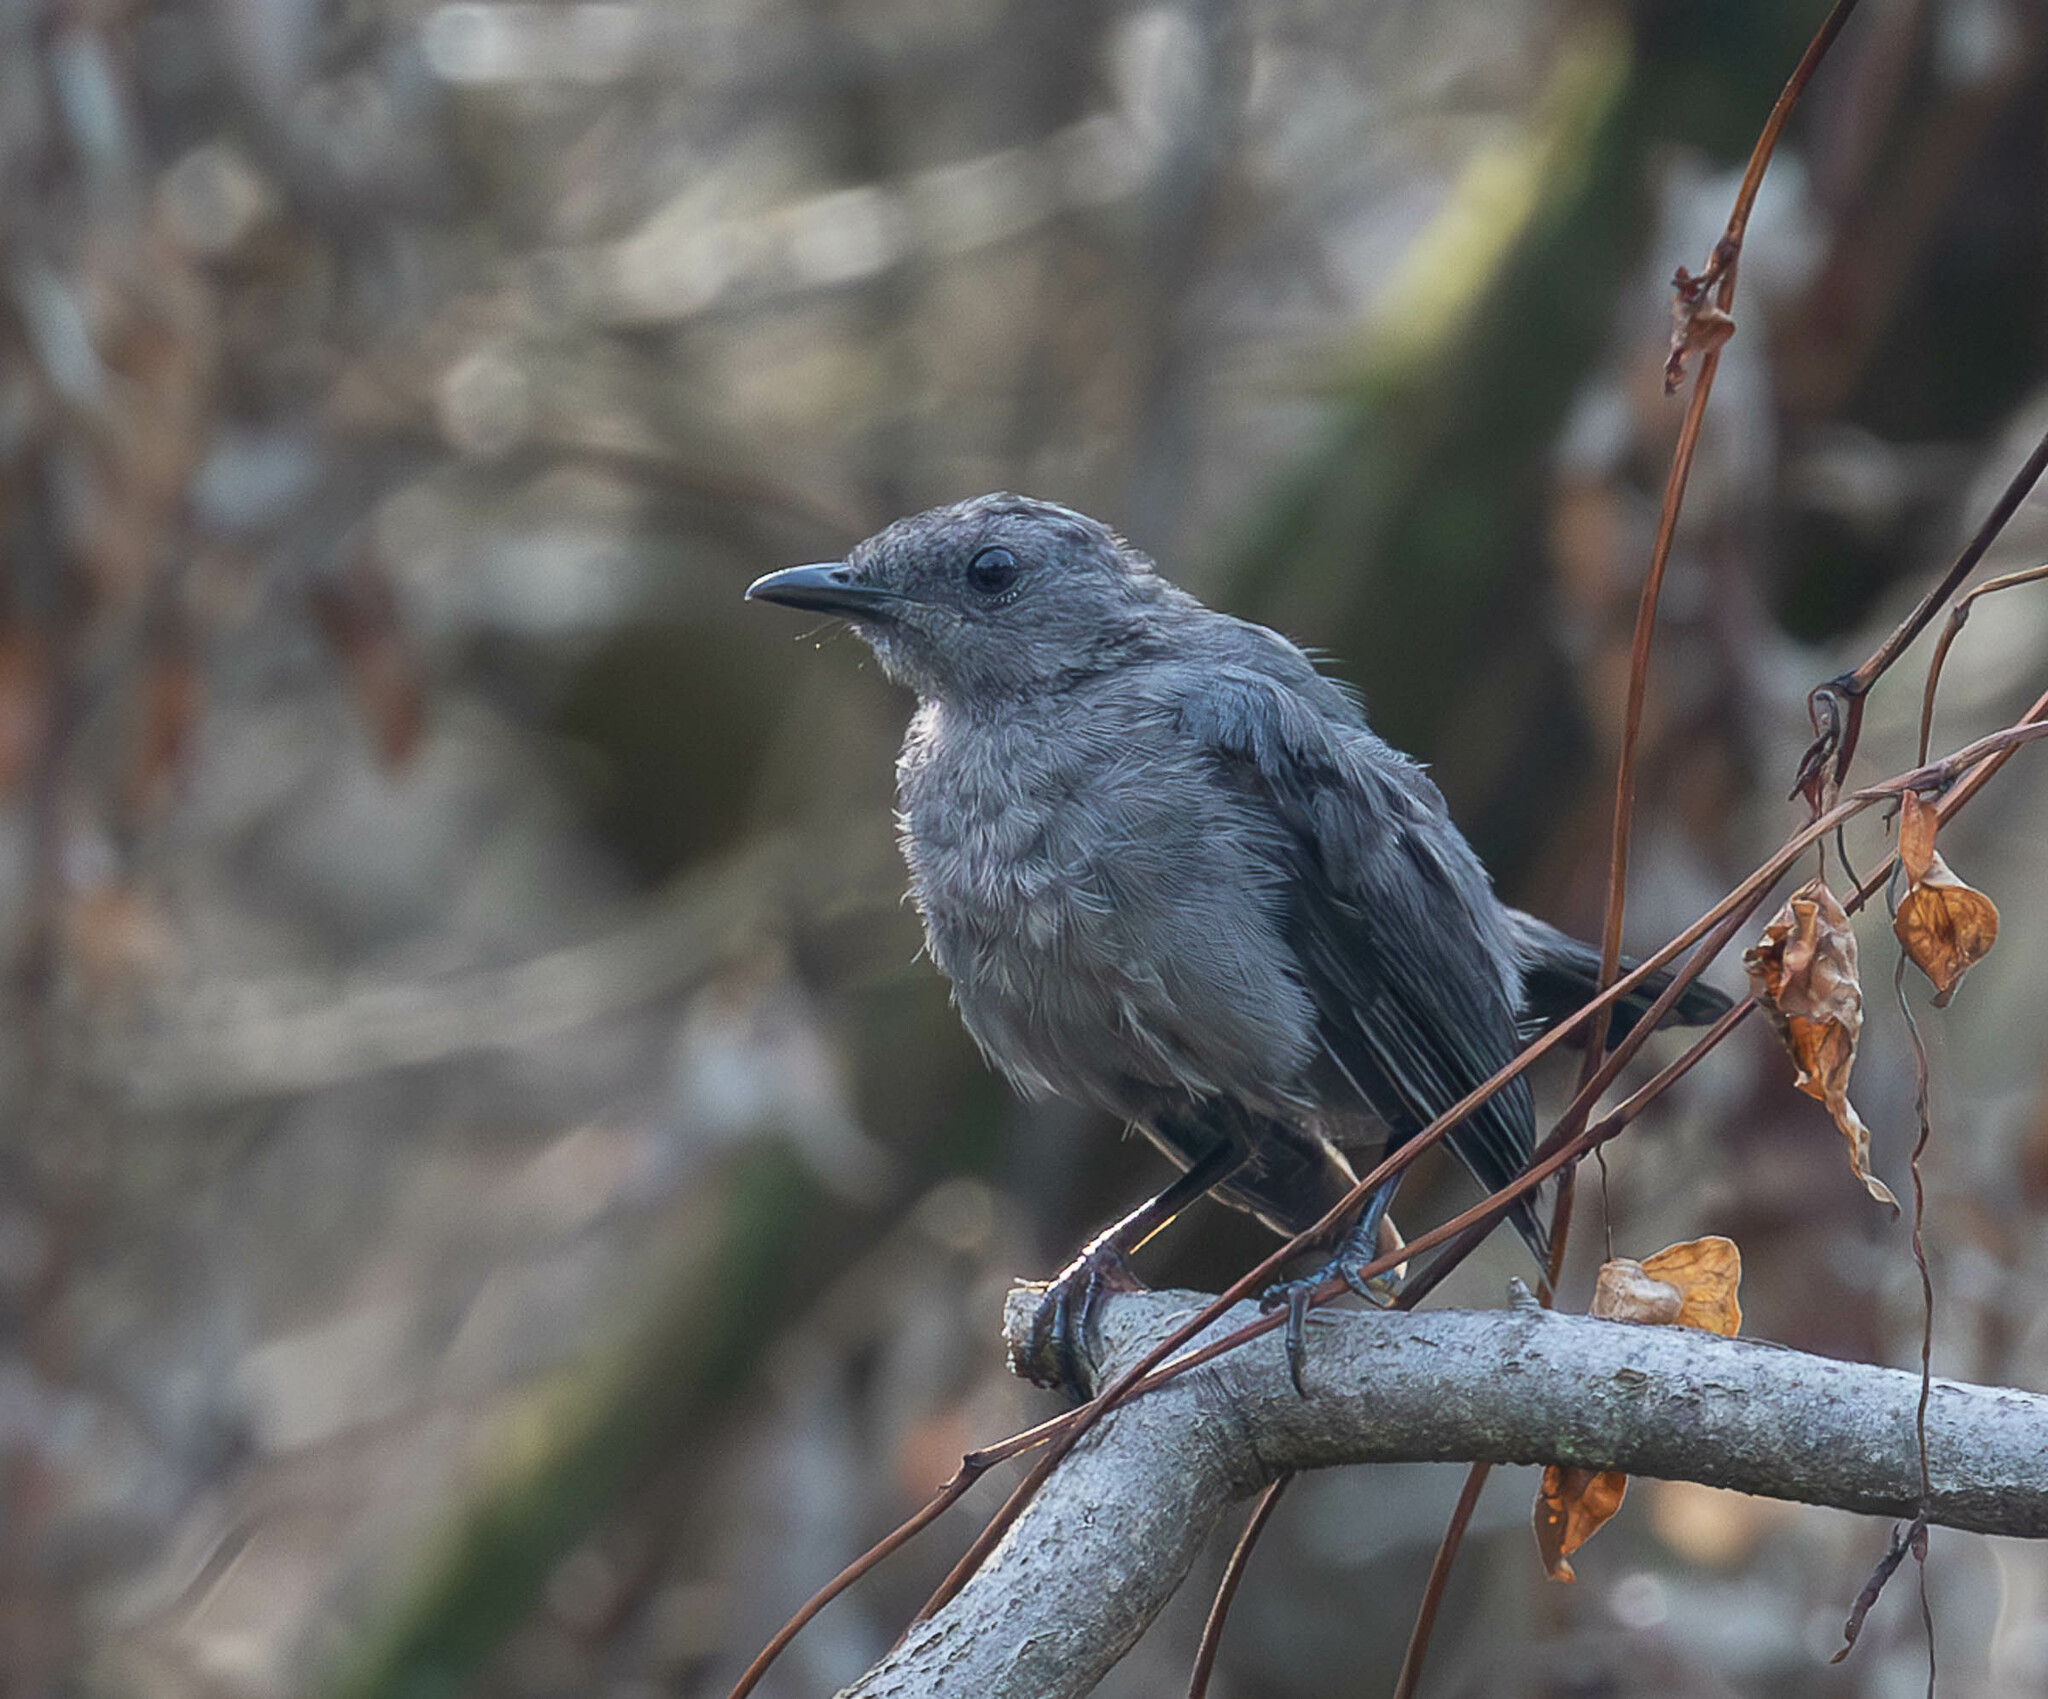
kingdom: Animalia
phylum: Chordata
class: Aves
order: Passeriformes
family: Mimidae
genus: Dumetella
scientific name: Dumetella carolinensis
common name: Gray catbird
